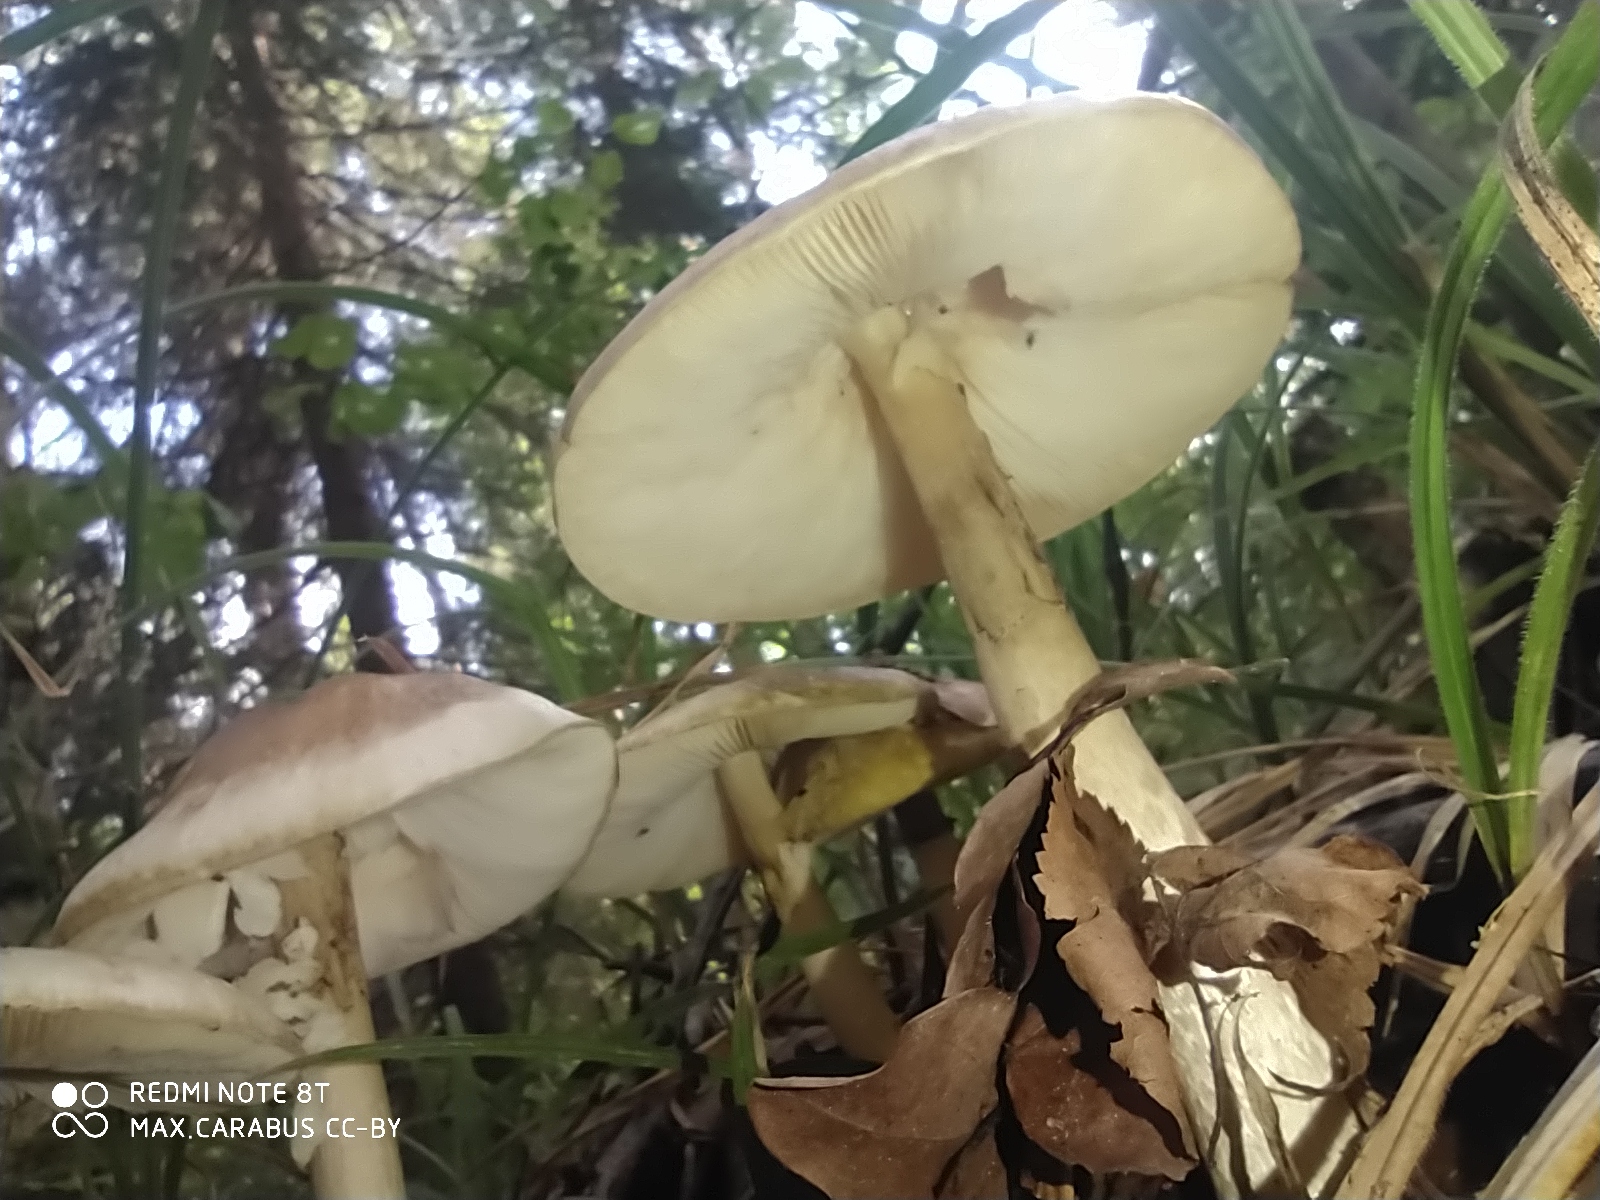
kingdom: Fungi
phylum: Basidiomycota
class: Agaricomycetes
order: Agaricales
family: Amanitaceae
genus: Amanita
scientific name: Amanita phalloides
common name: Death cap
